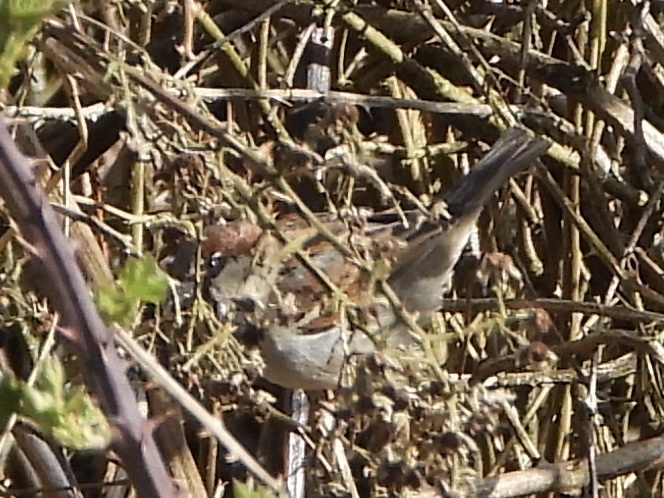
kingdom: Animalia
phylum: Chordata
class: Aves
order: Passeriformes
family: Passeridae
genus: Passer
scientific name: Passer domesticus
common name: House sparrow
